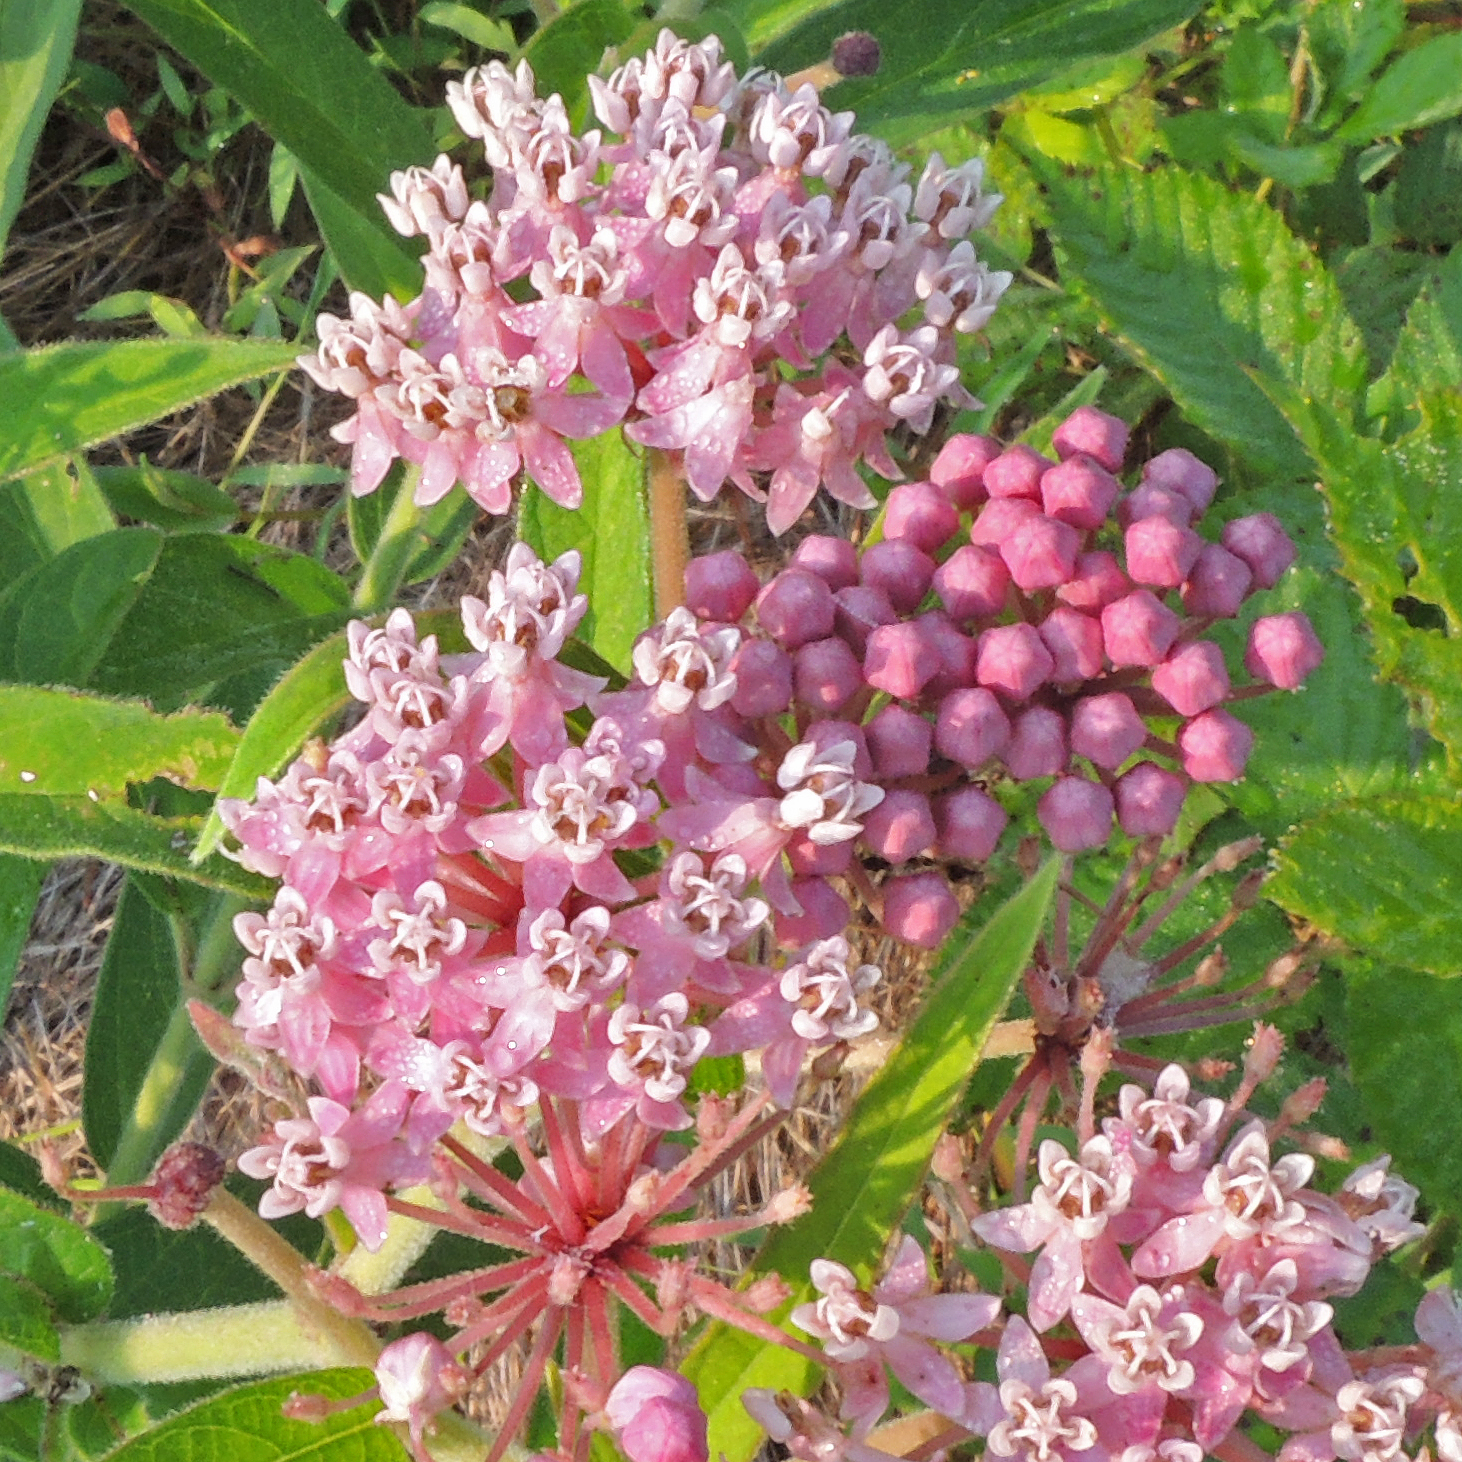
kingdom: Plantae
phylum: Tracheophyta
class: Magnoliopsida
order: Gentianales
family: Apocynaceae
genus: Asclepias
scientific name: Asclepias incarnata
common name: Swamp milkweed
